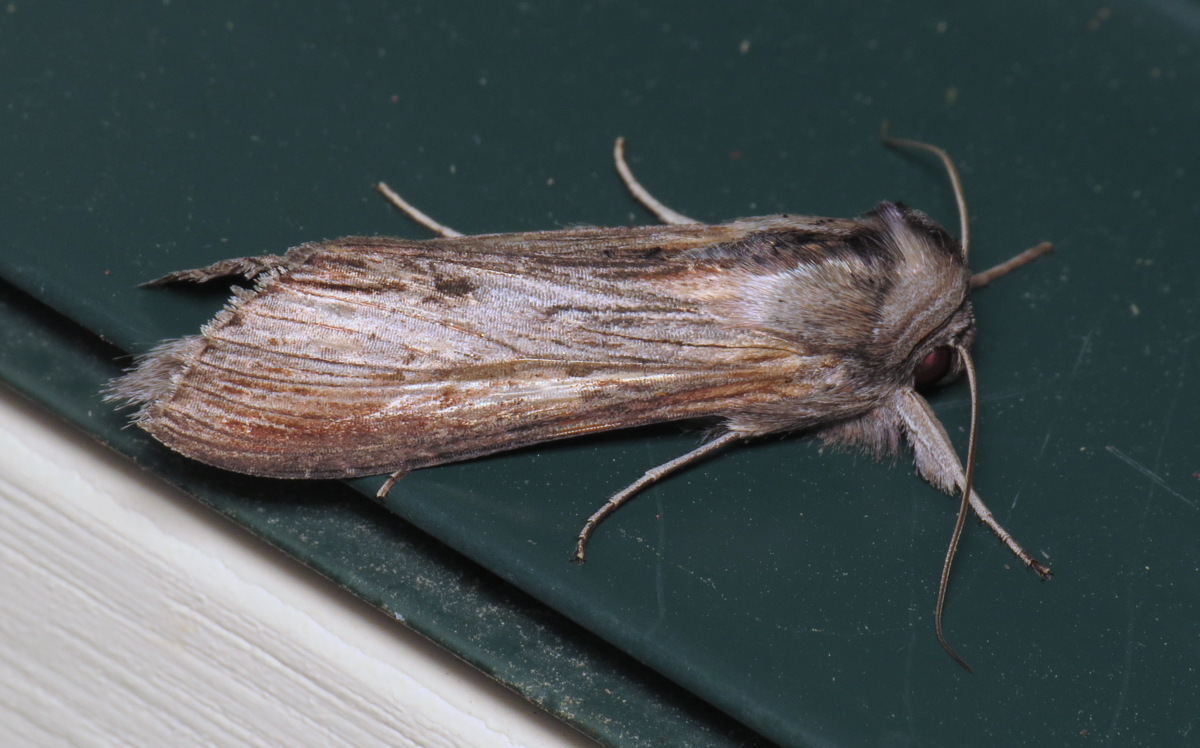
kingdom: Animalia
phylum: Arthropoda
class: Insecta
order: Lepidoptera
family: Noctuidae
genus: Cucullia
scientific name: Cucullia asteroides
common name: Asteroid moth
